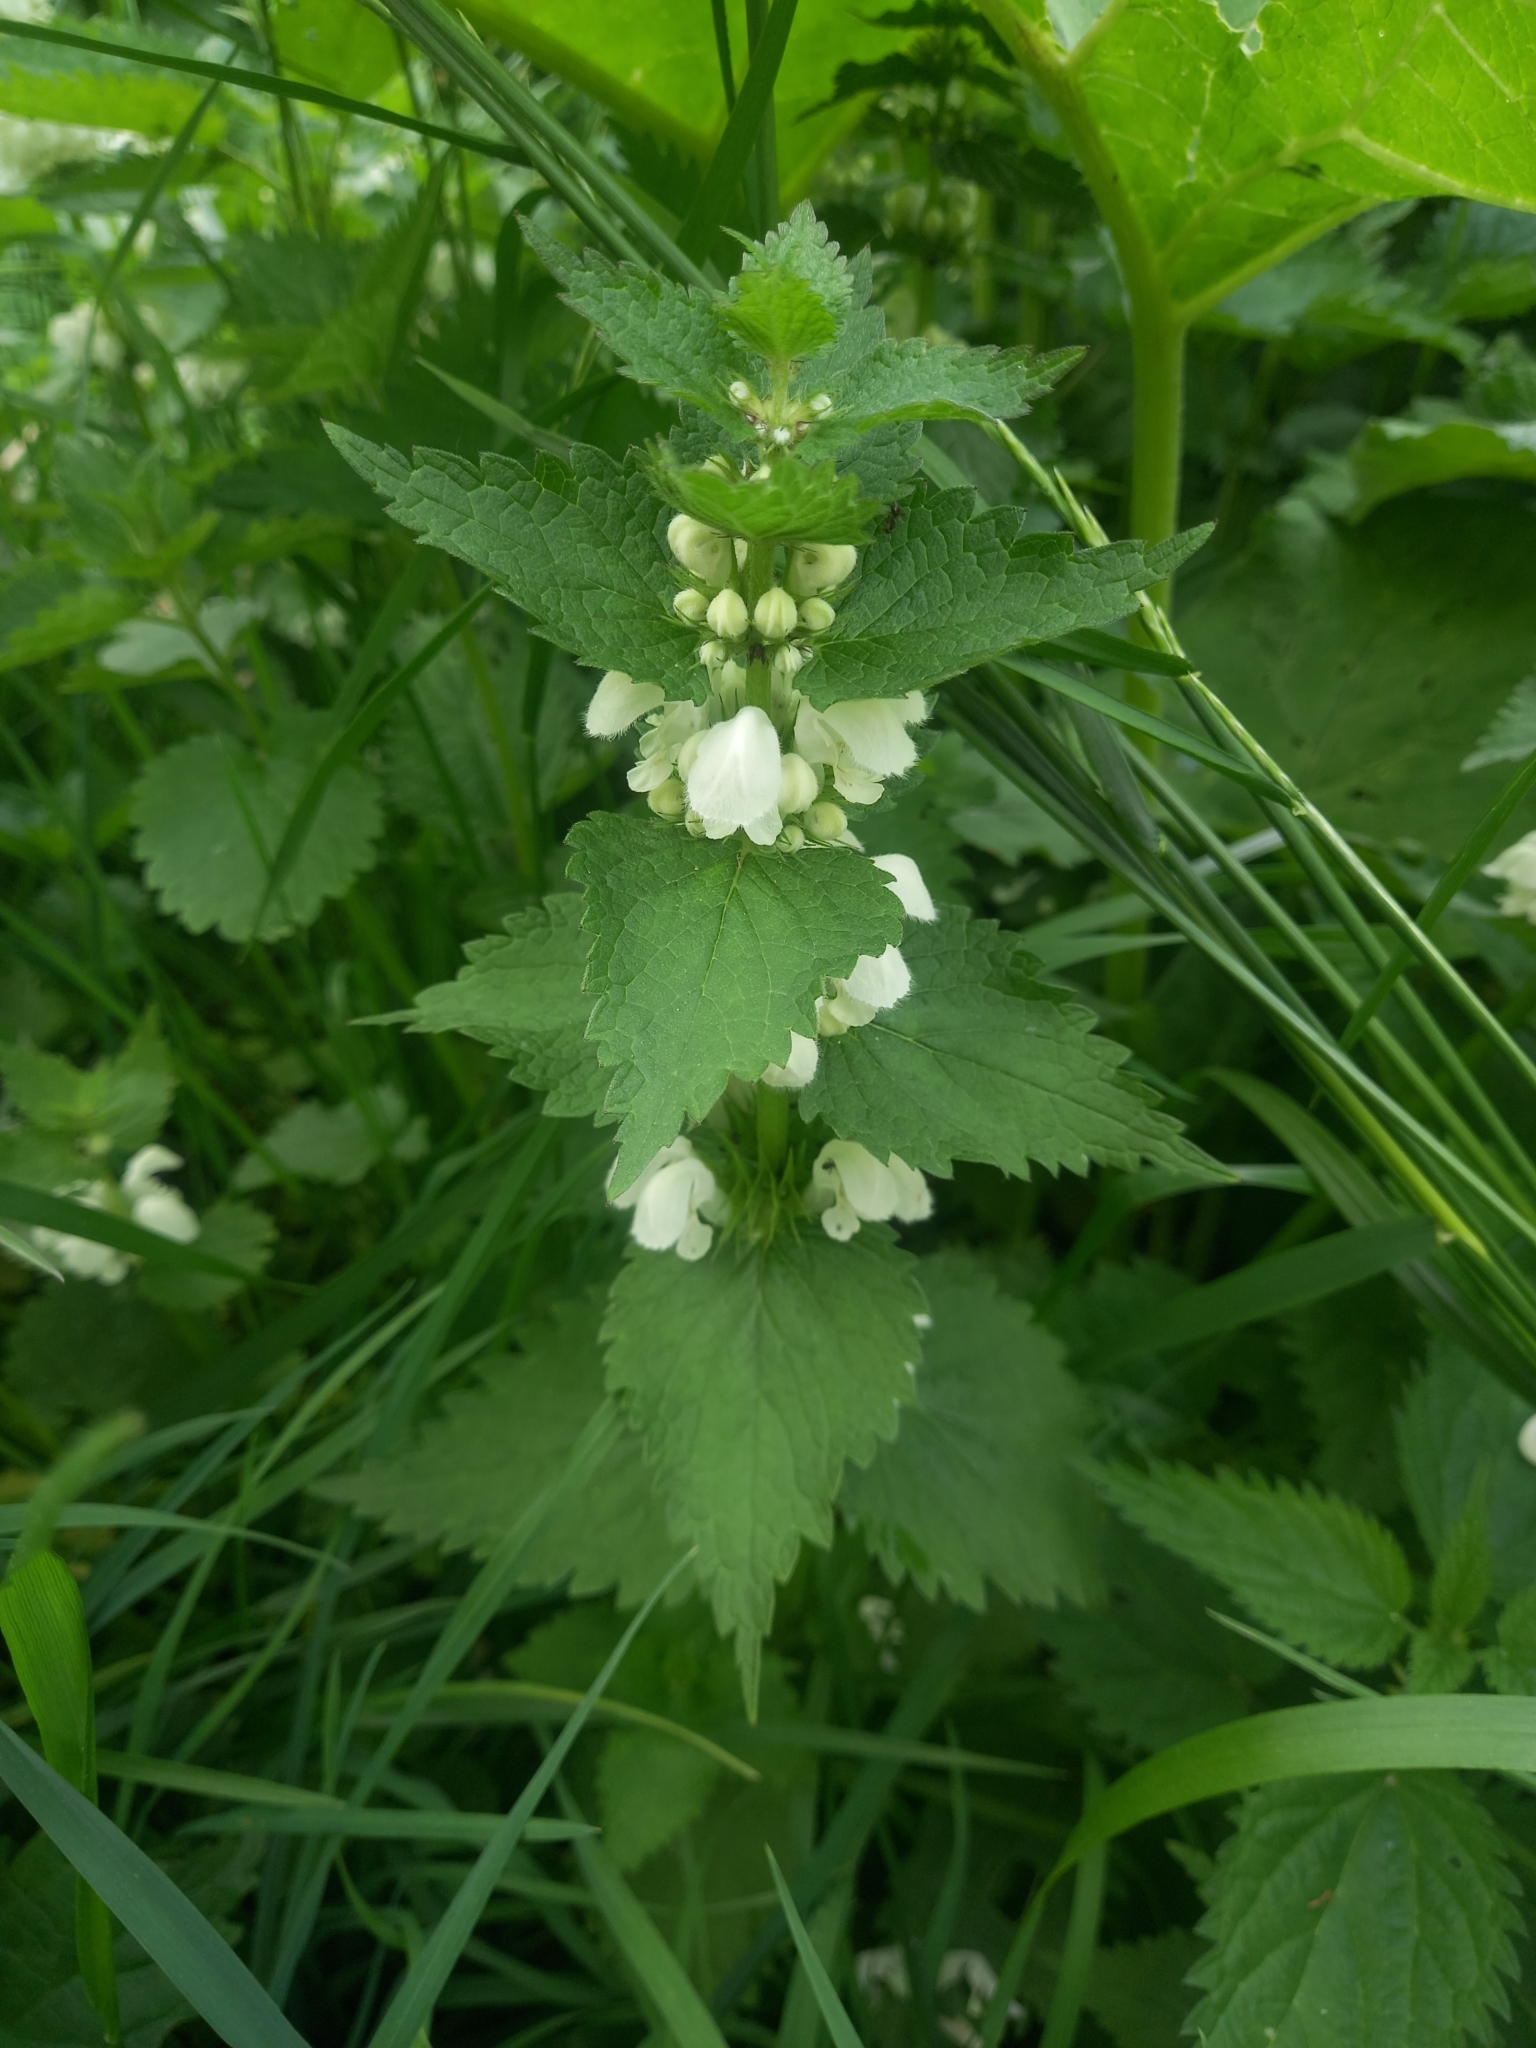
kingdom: Plantae
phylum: Tracheophyta
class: Magnoliopsida
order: Lamiales
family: Lamiaceae
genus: Lamium
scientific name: Lamium album
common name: White dead-nettle
